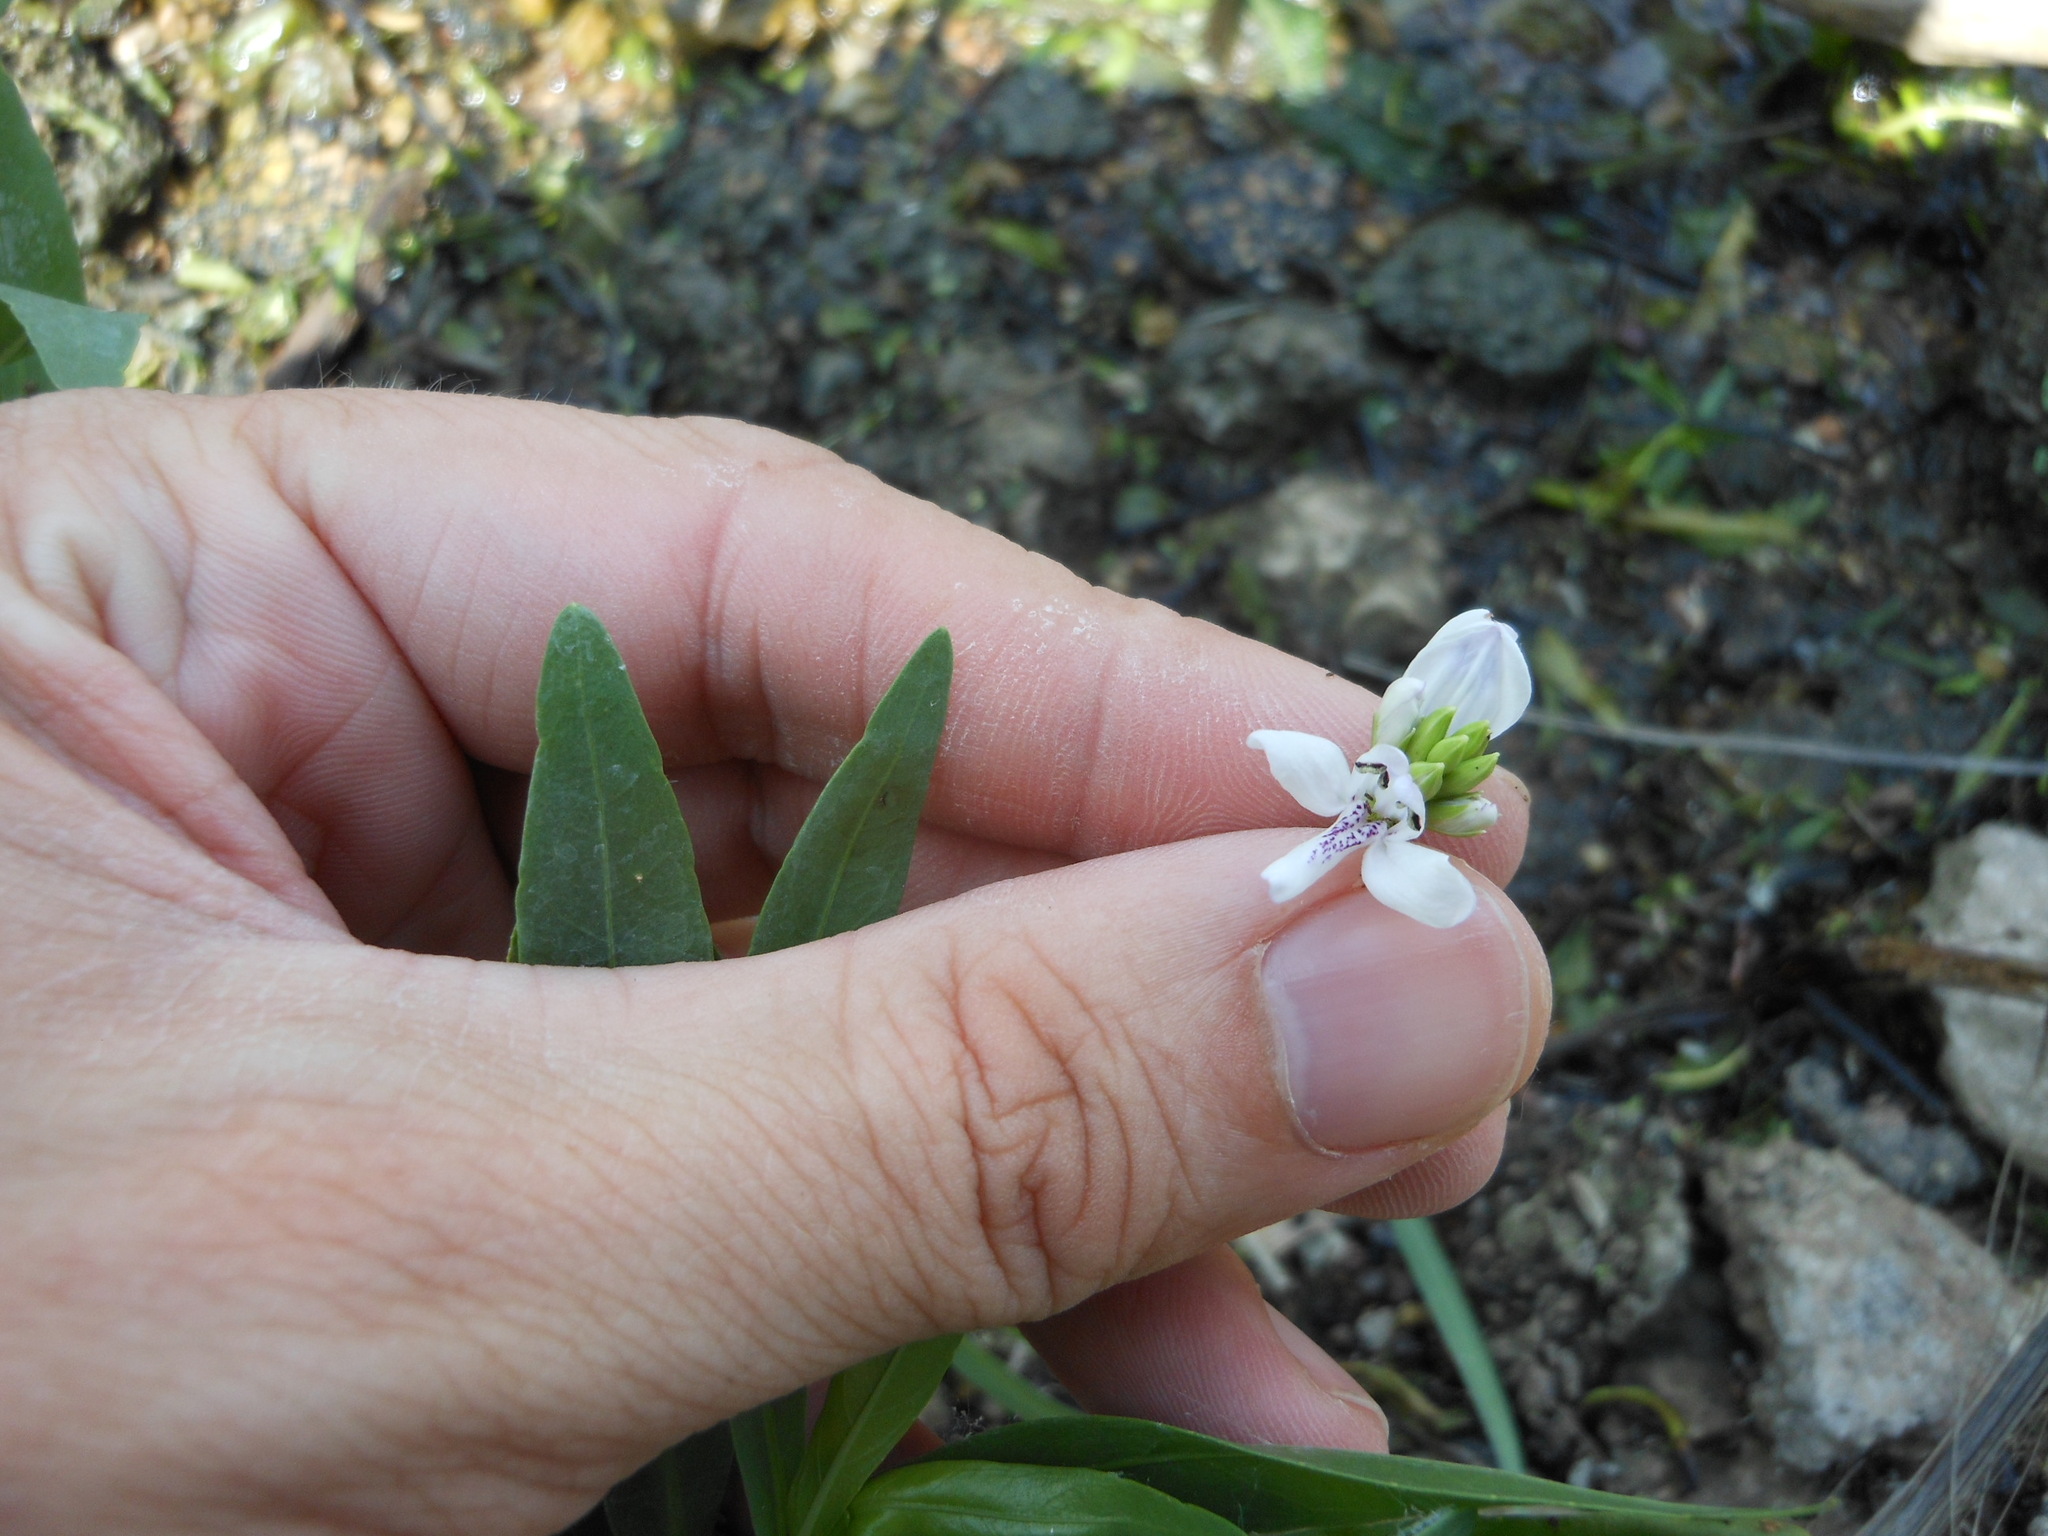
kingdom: Plantae
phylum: Tracheophyta
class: Magnoliopsida
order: Lamiales
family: Acanthaceae
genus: Dianthera
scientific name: Dianthera americana
